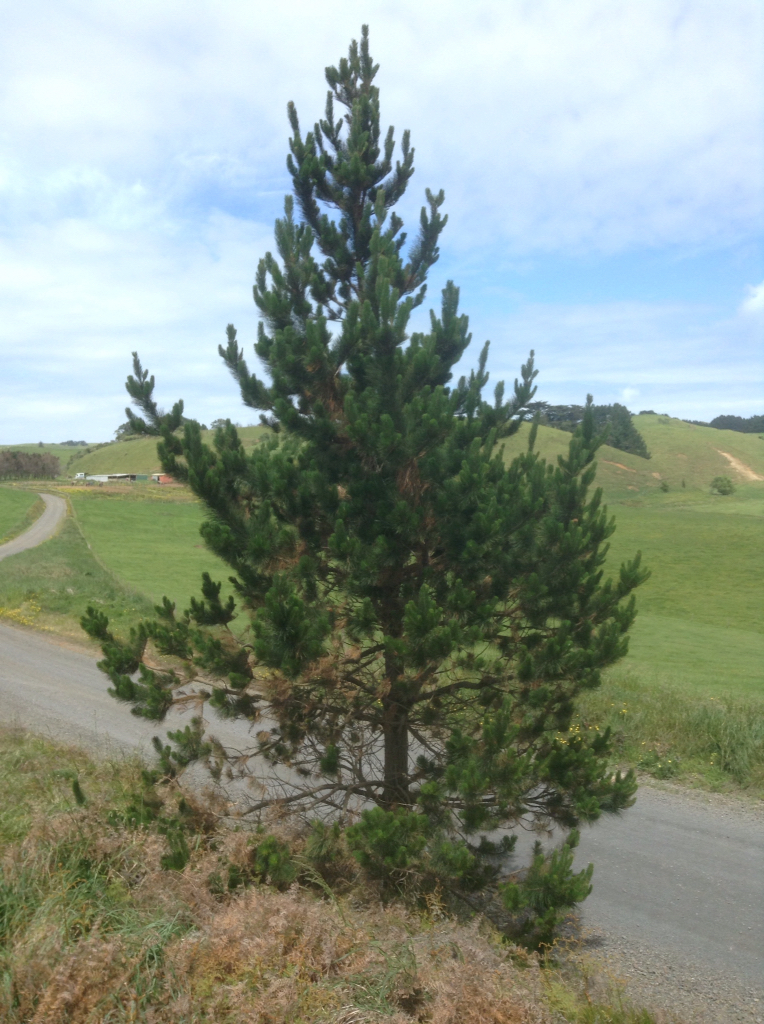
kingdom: Plantae
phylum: Tracheophyta
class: Pinopsida
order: Pinales
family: Pinaceae
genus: Pinus
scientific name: Pinus radiata
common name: Monterey pine
